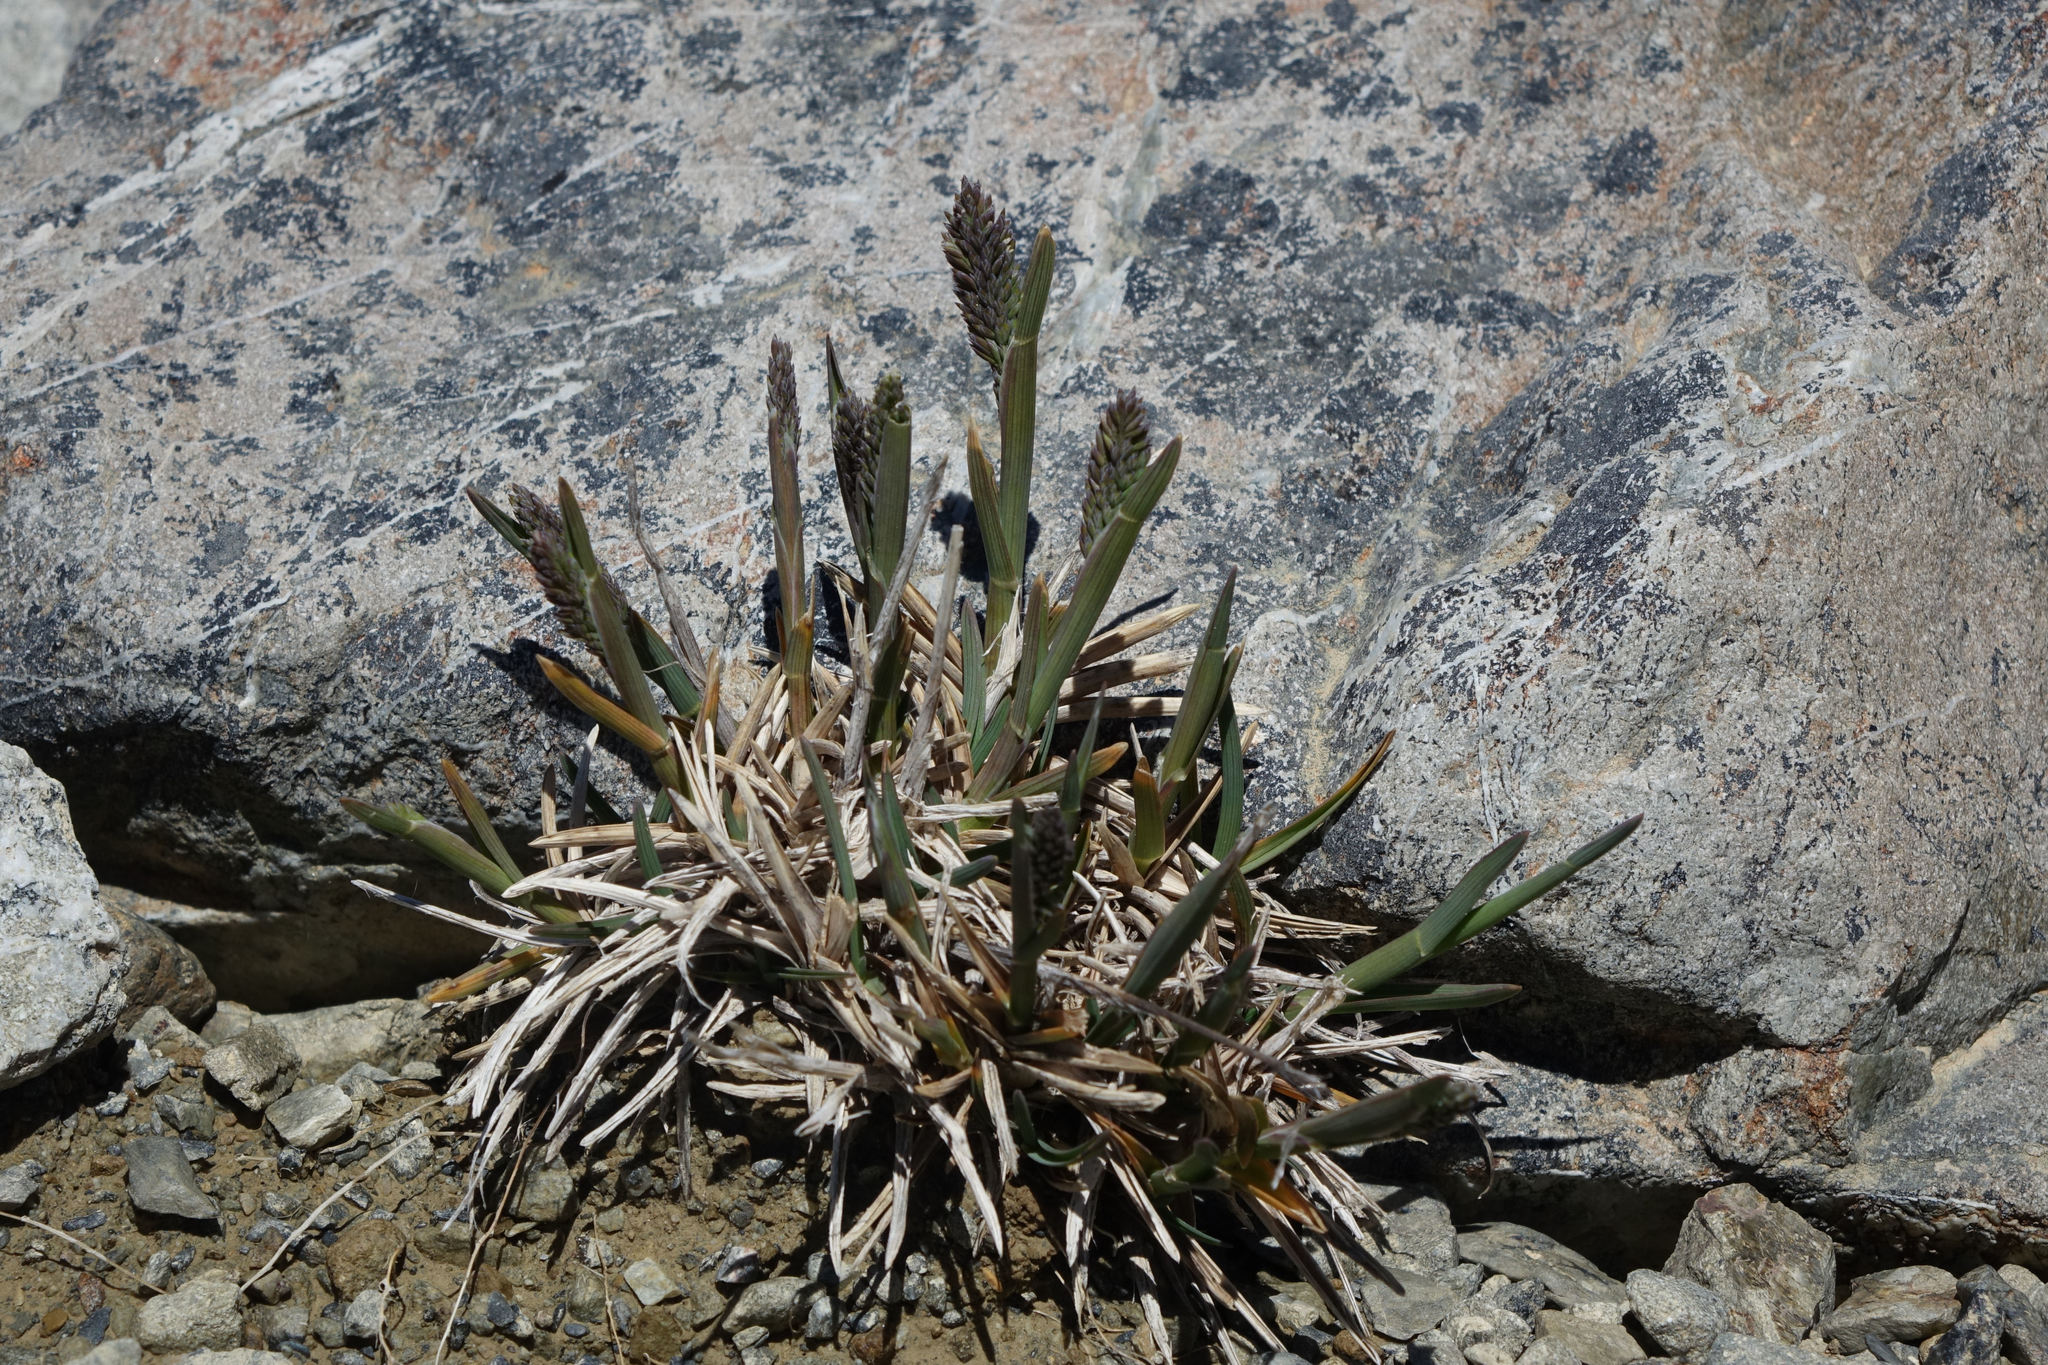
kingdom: Plantae
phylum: Tracheophyta
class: Liliopsida
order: Poales
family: Poaceae
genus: Poa
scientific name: Poa buchananii
